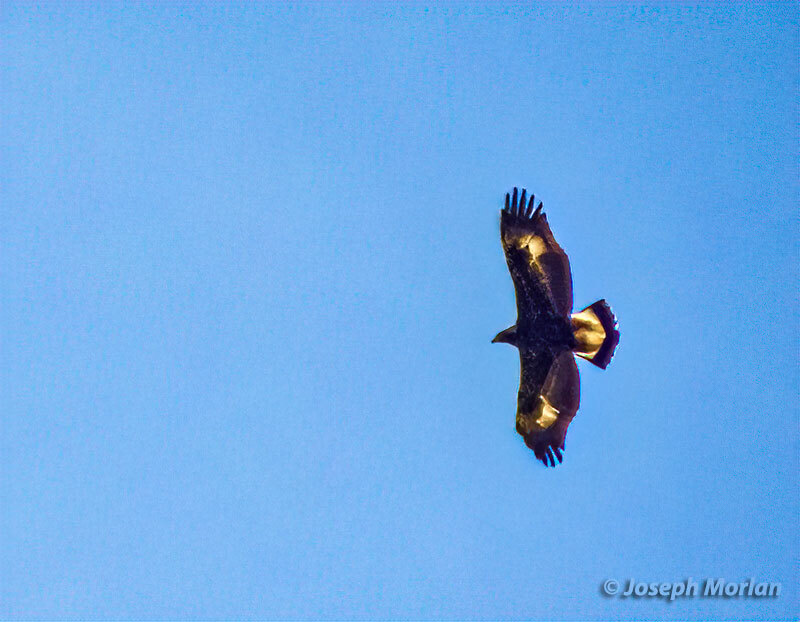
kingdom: Animalia
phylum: Chordata
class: Aves
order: Accipitriformes
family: Accipitridae
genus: Aquila
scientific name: Aquila chrysaetos
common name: Golden eagle
